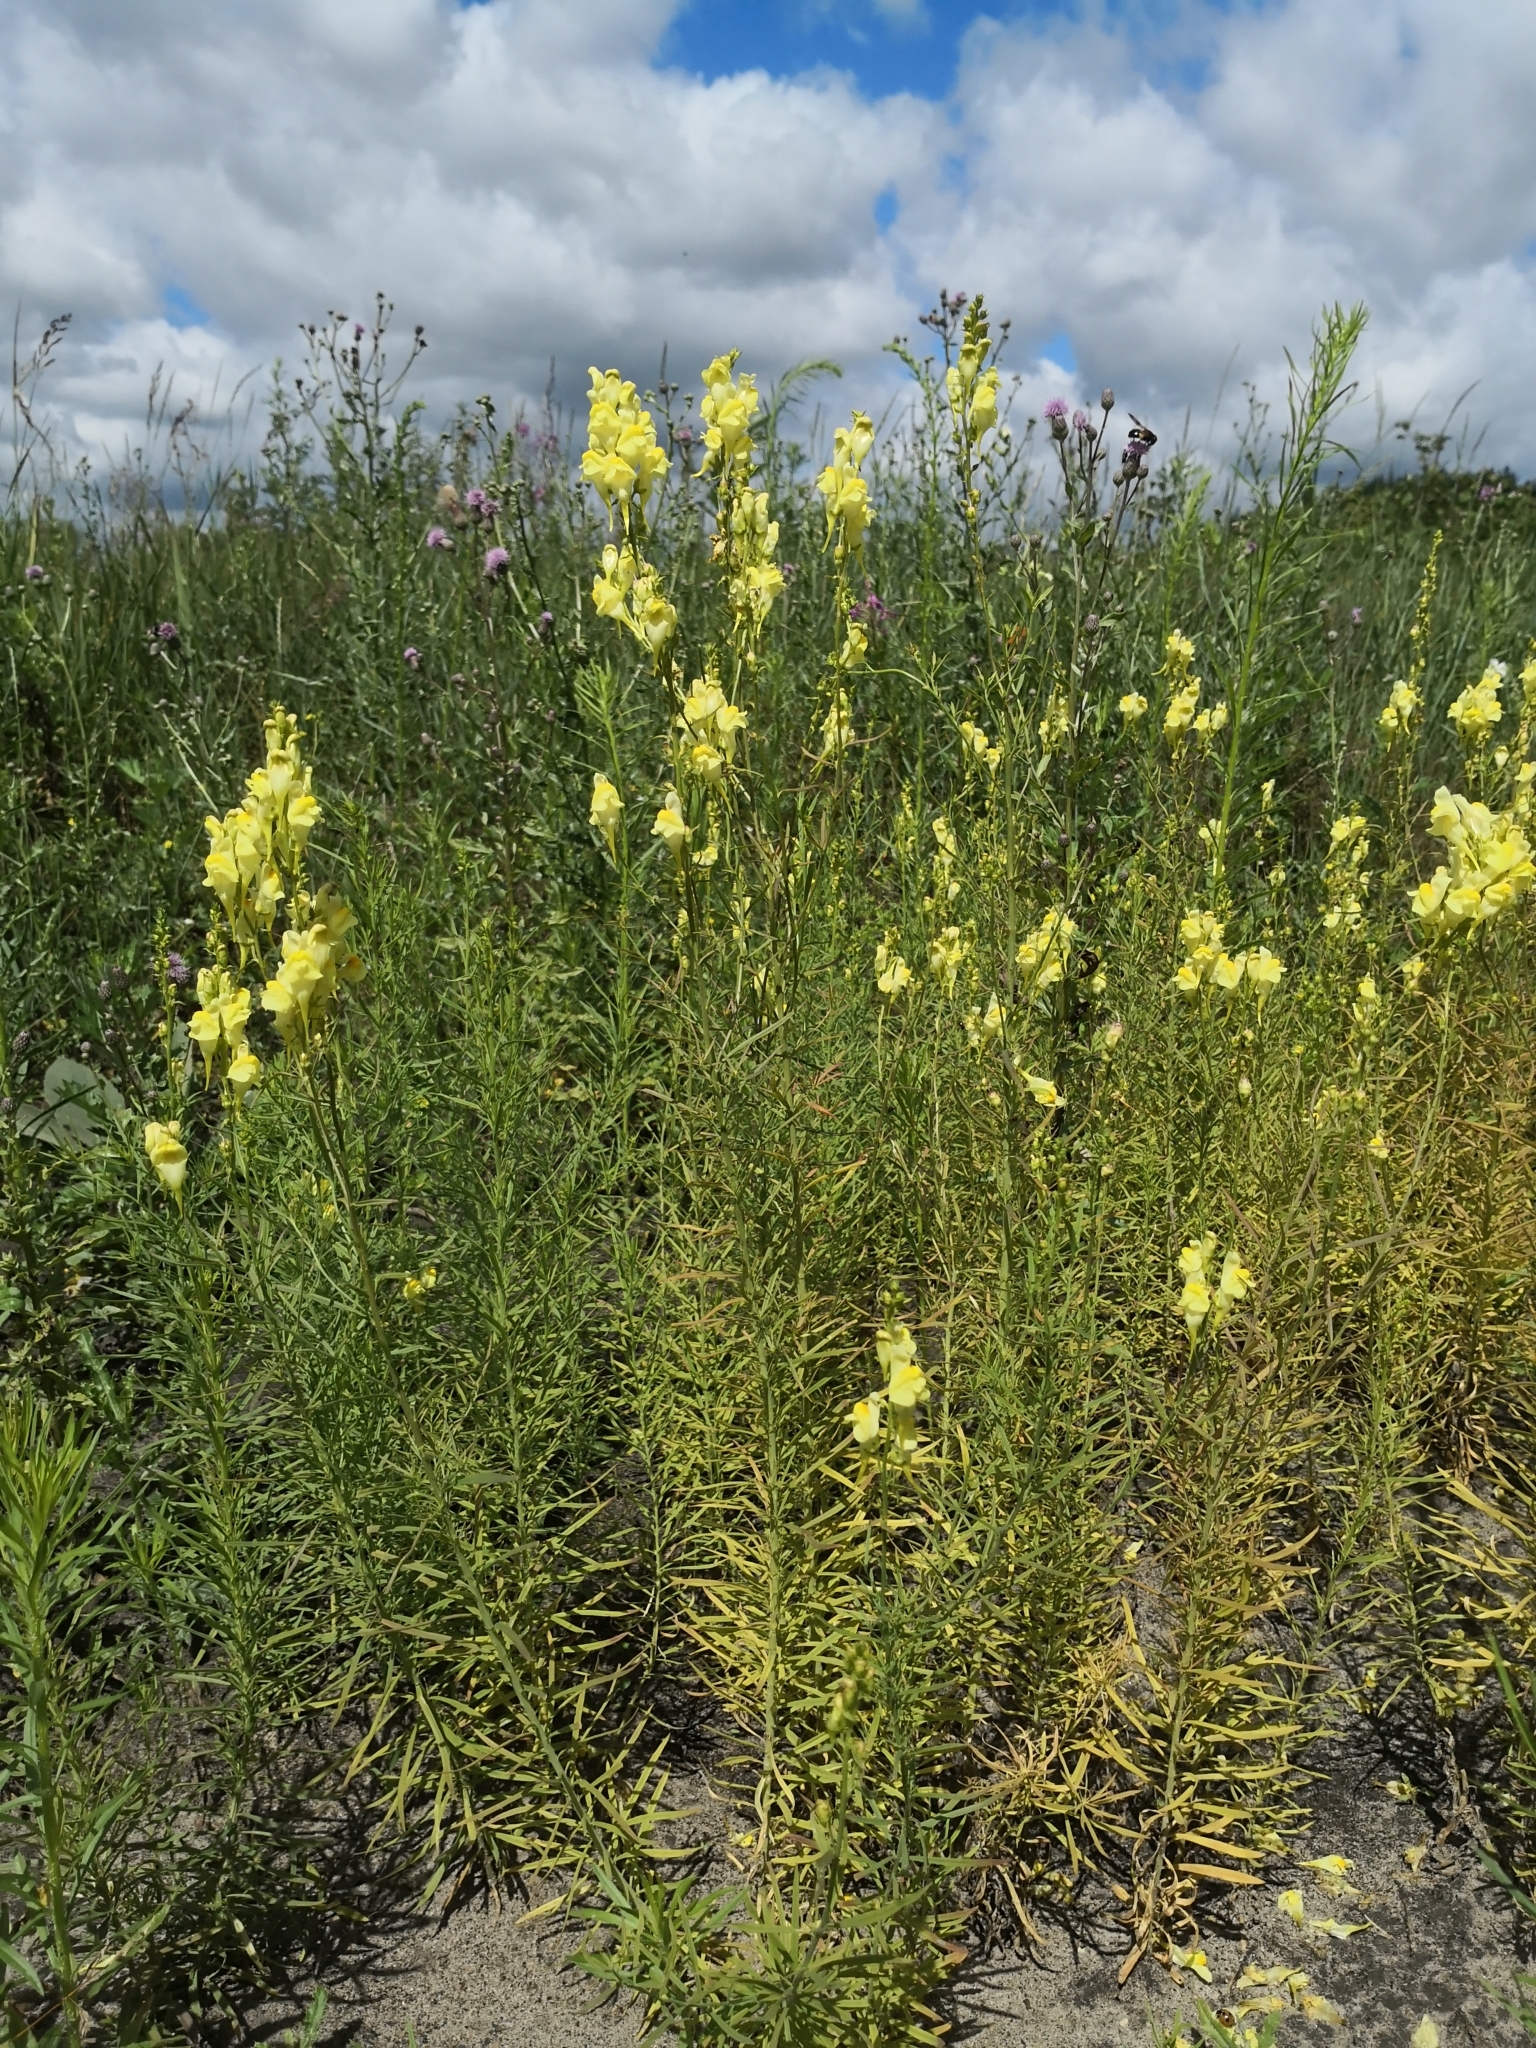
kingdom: Plantae
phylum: Tracheophyta
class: Magnoliopsida
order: Lamiales
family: Plantaginaceae
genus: Linaria
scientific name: Linaria vulgaris
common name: Butter and eggs
